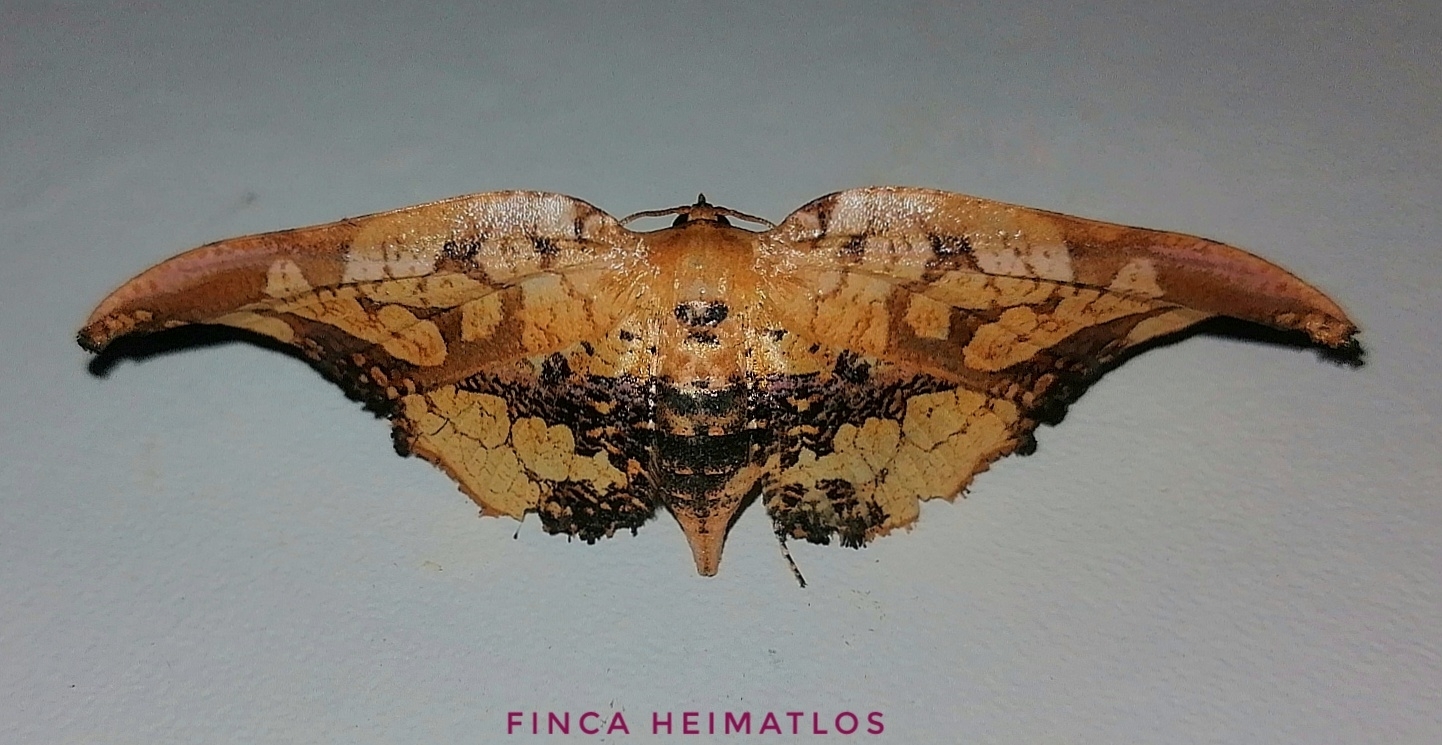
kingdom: Animalia
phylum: Arthropoda
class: Insecta
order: Lepidoptera
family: Thyrididae
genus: Draconia
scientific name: Draconia stenoptila
